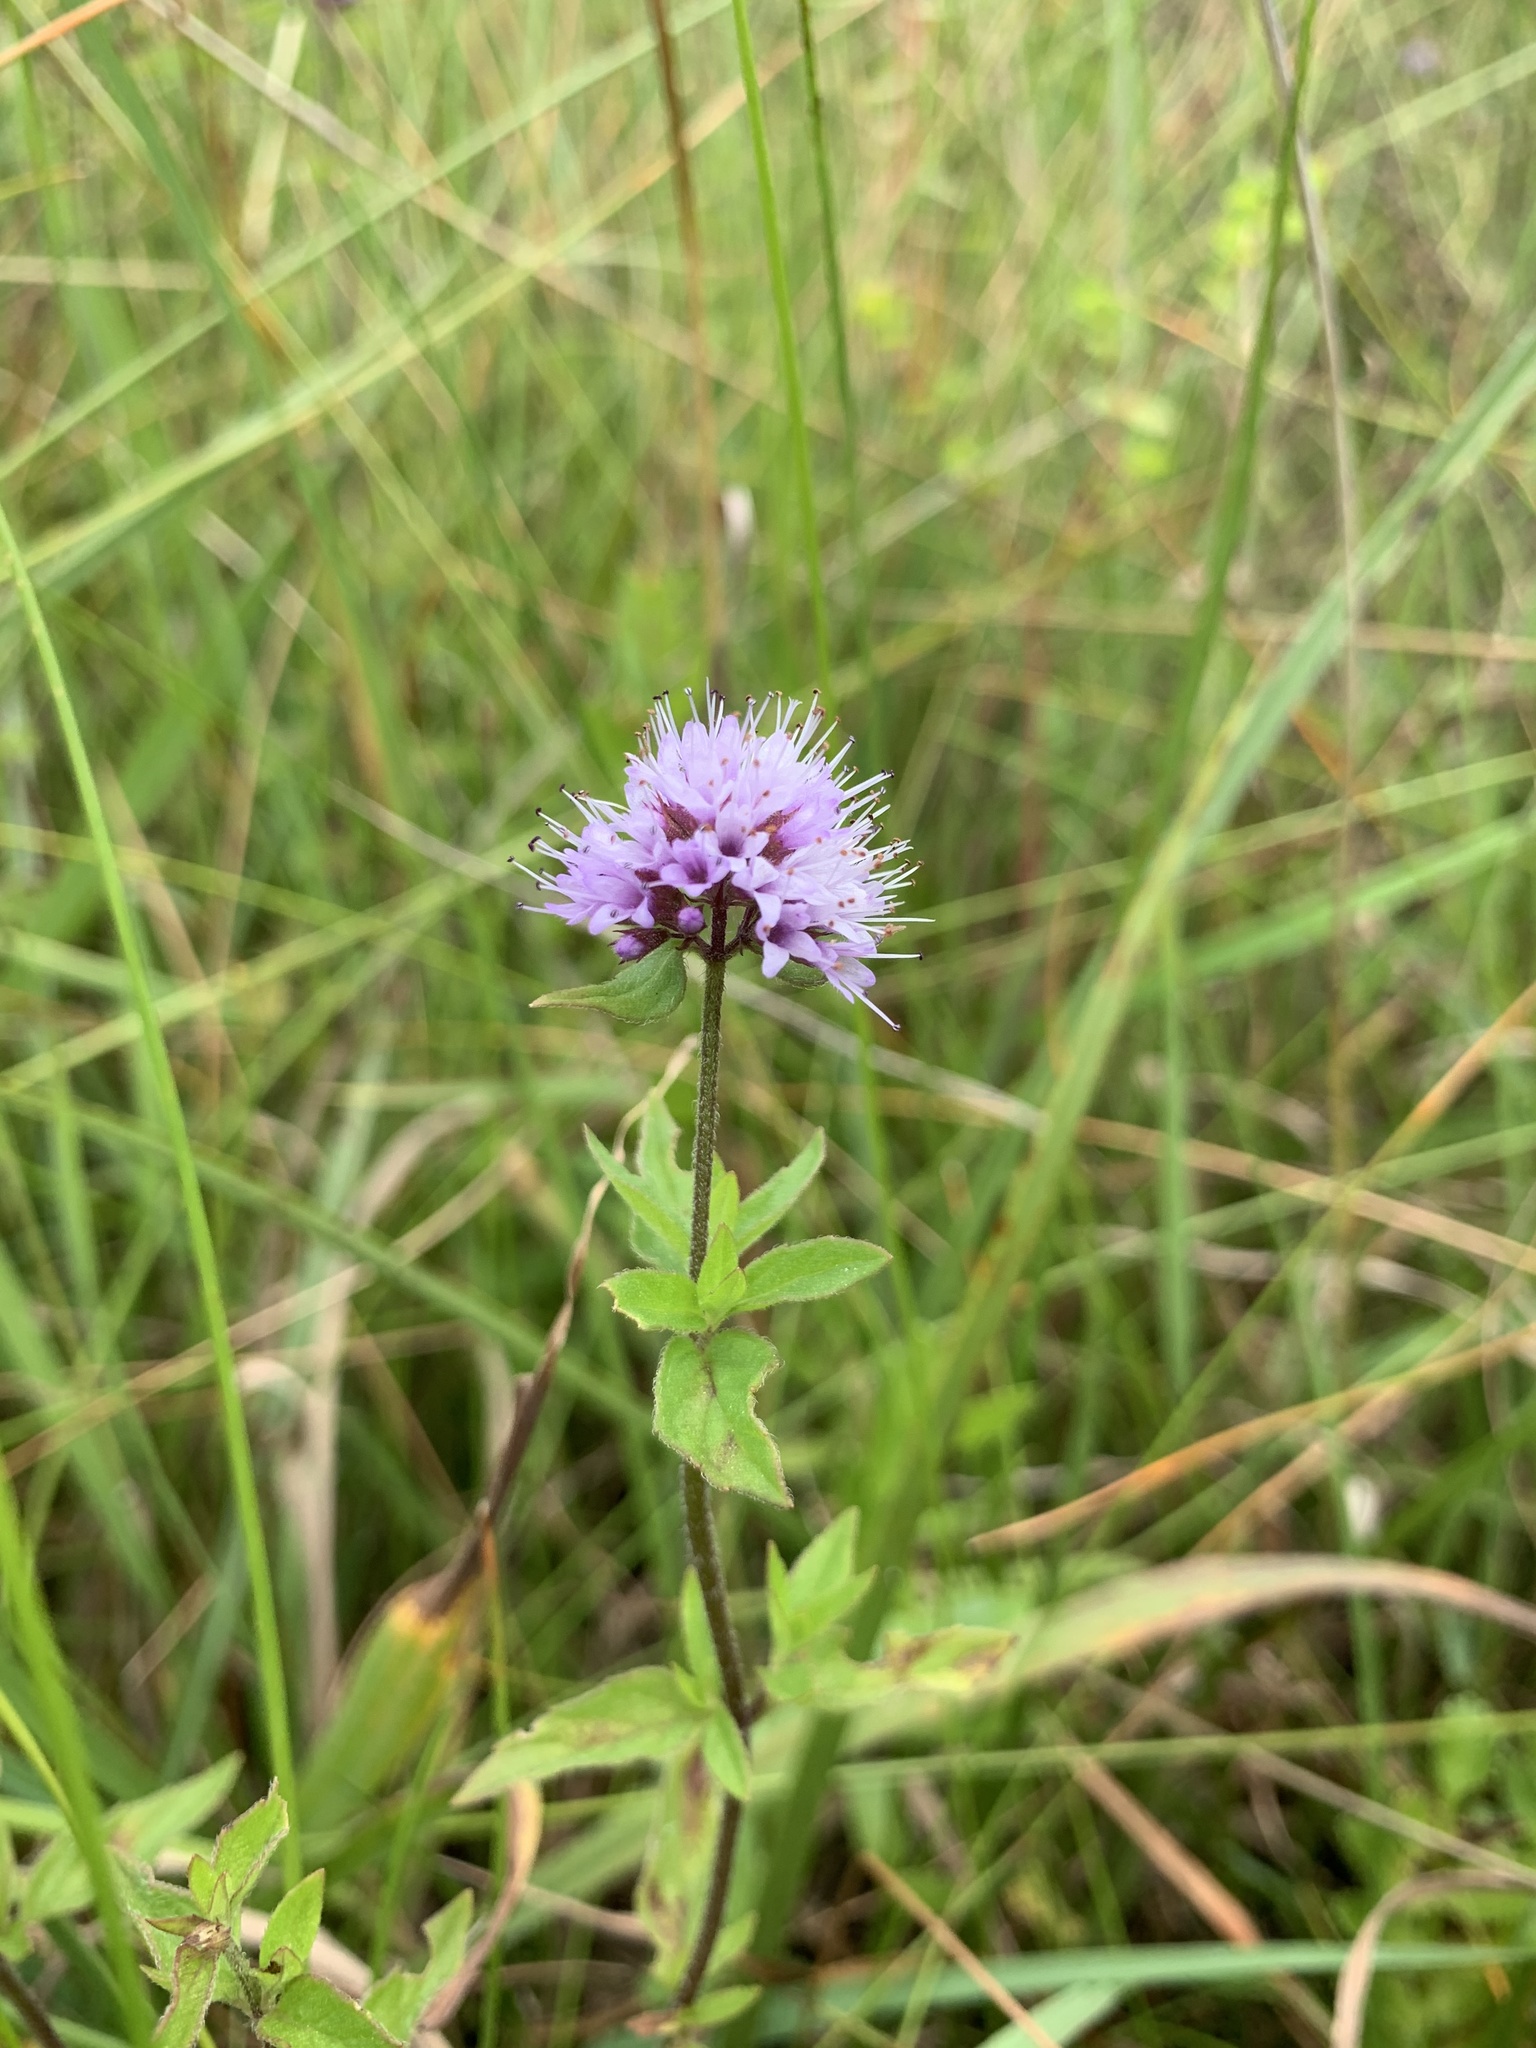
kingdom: Plantae
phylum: Tracheophyta
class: Magnoliopsida
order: Lamiales
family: Lamiaceae
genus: Mentha
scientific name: Mentha aquatica
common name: Water mint
